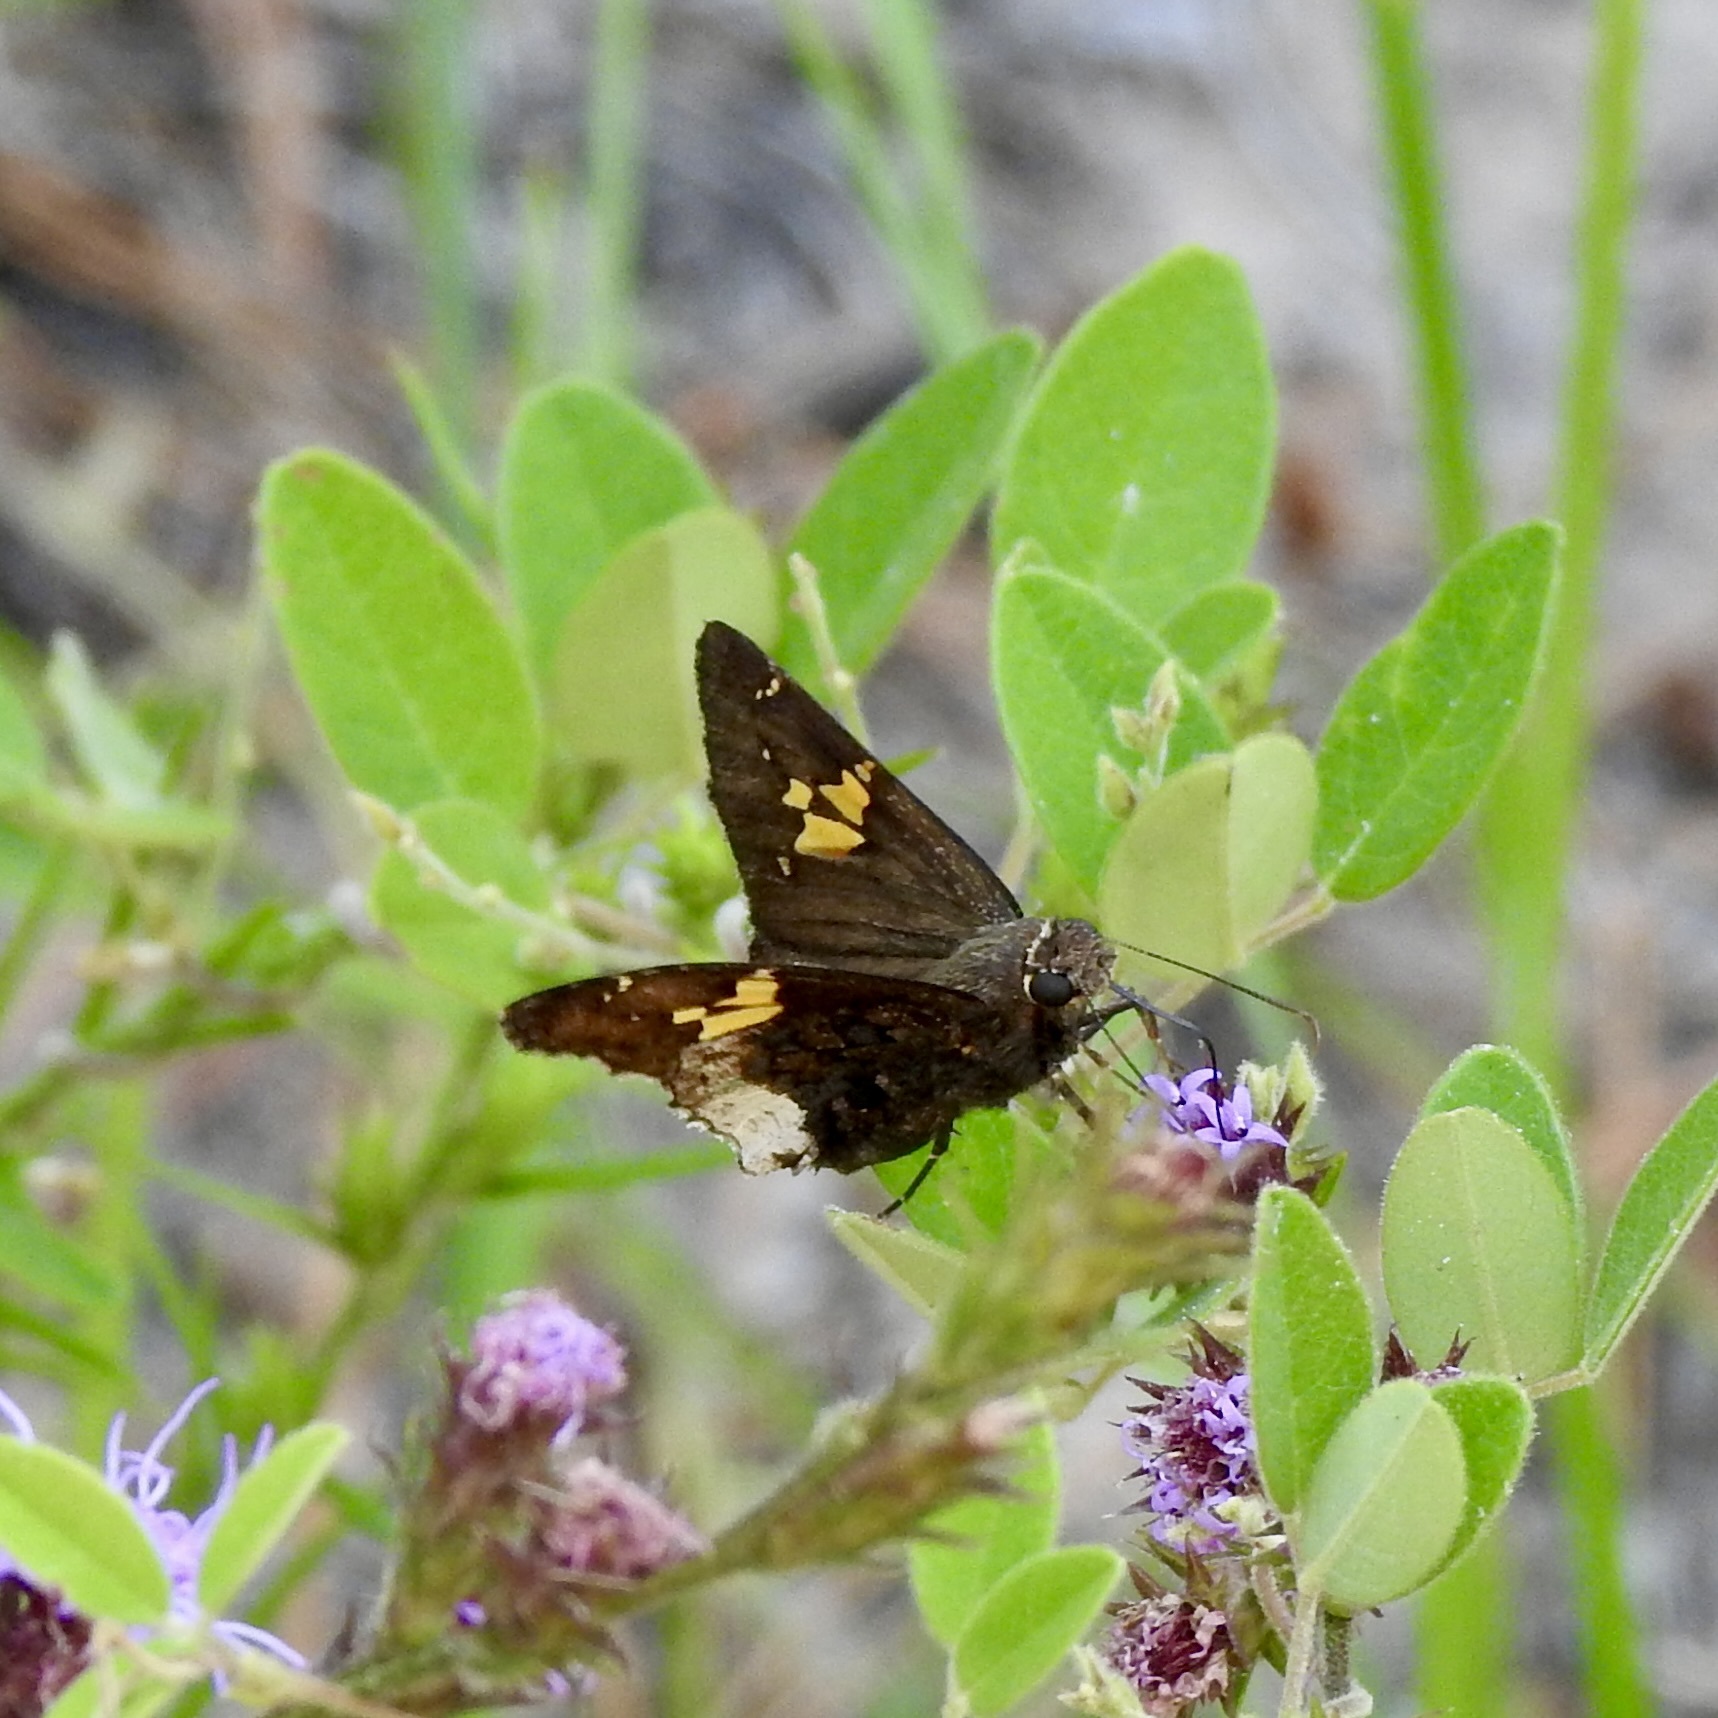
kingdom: Animalia
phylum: Arthropoda
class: Insecta
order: Lepidoptera
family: Hesperiidae
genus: Thorybes
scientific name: Thorybes lyciades
